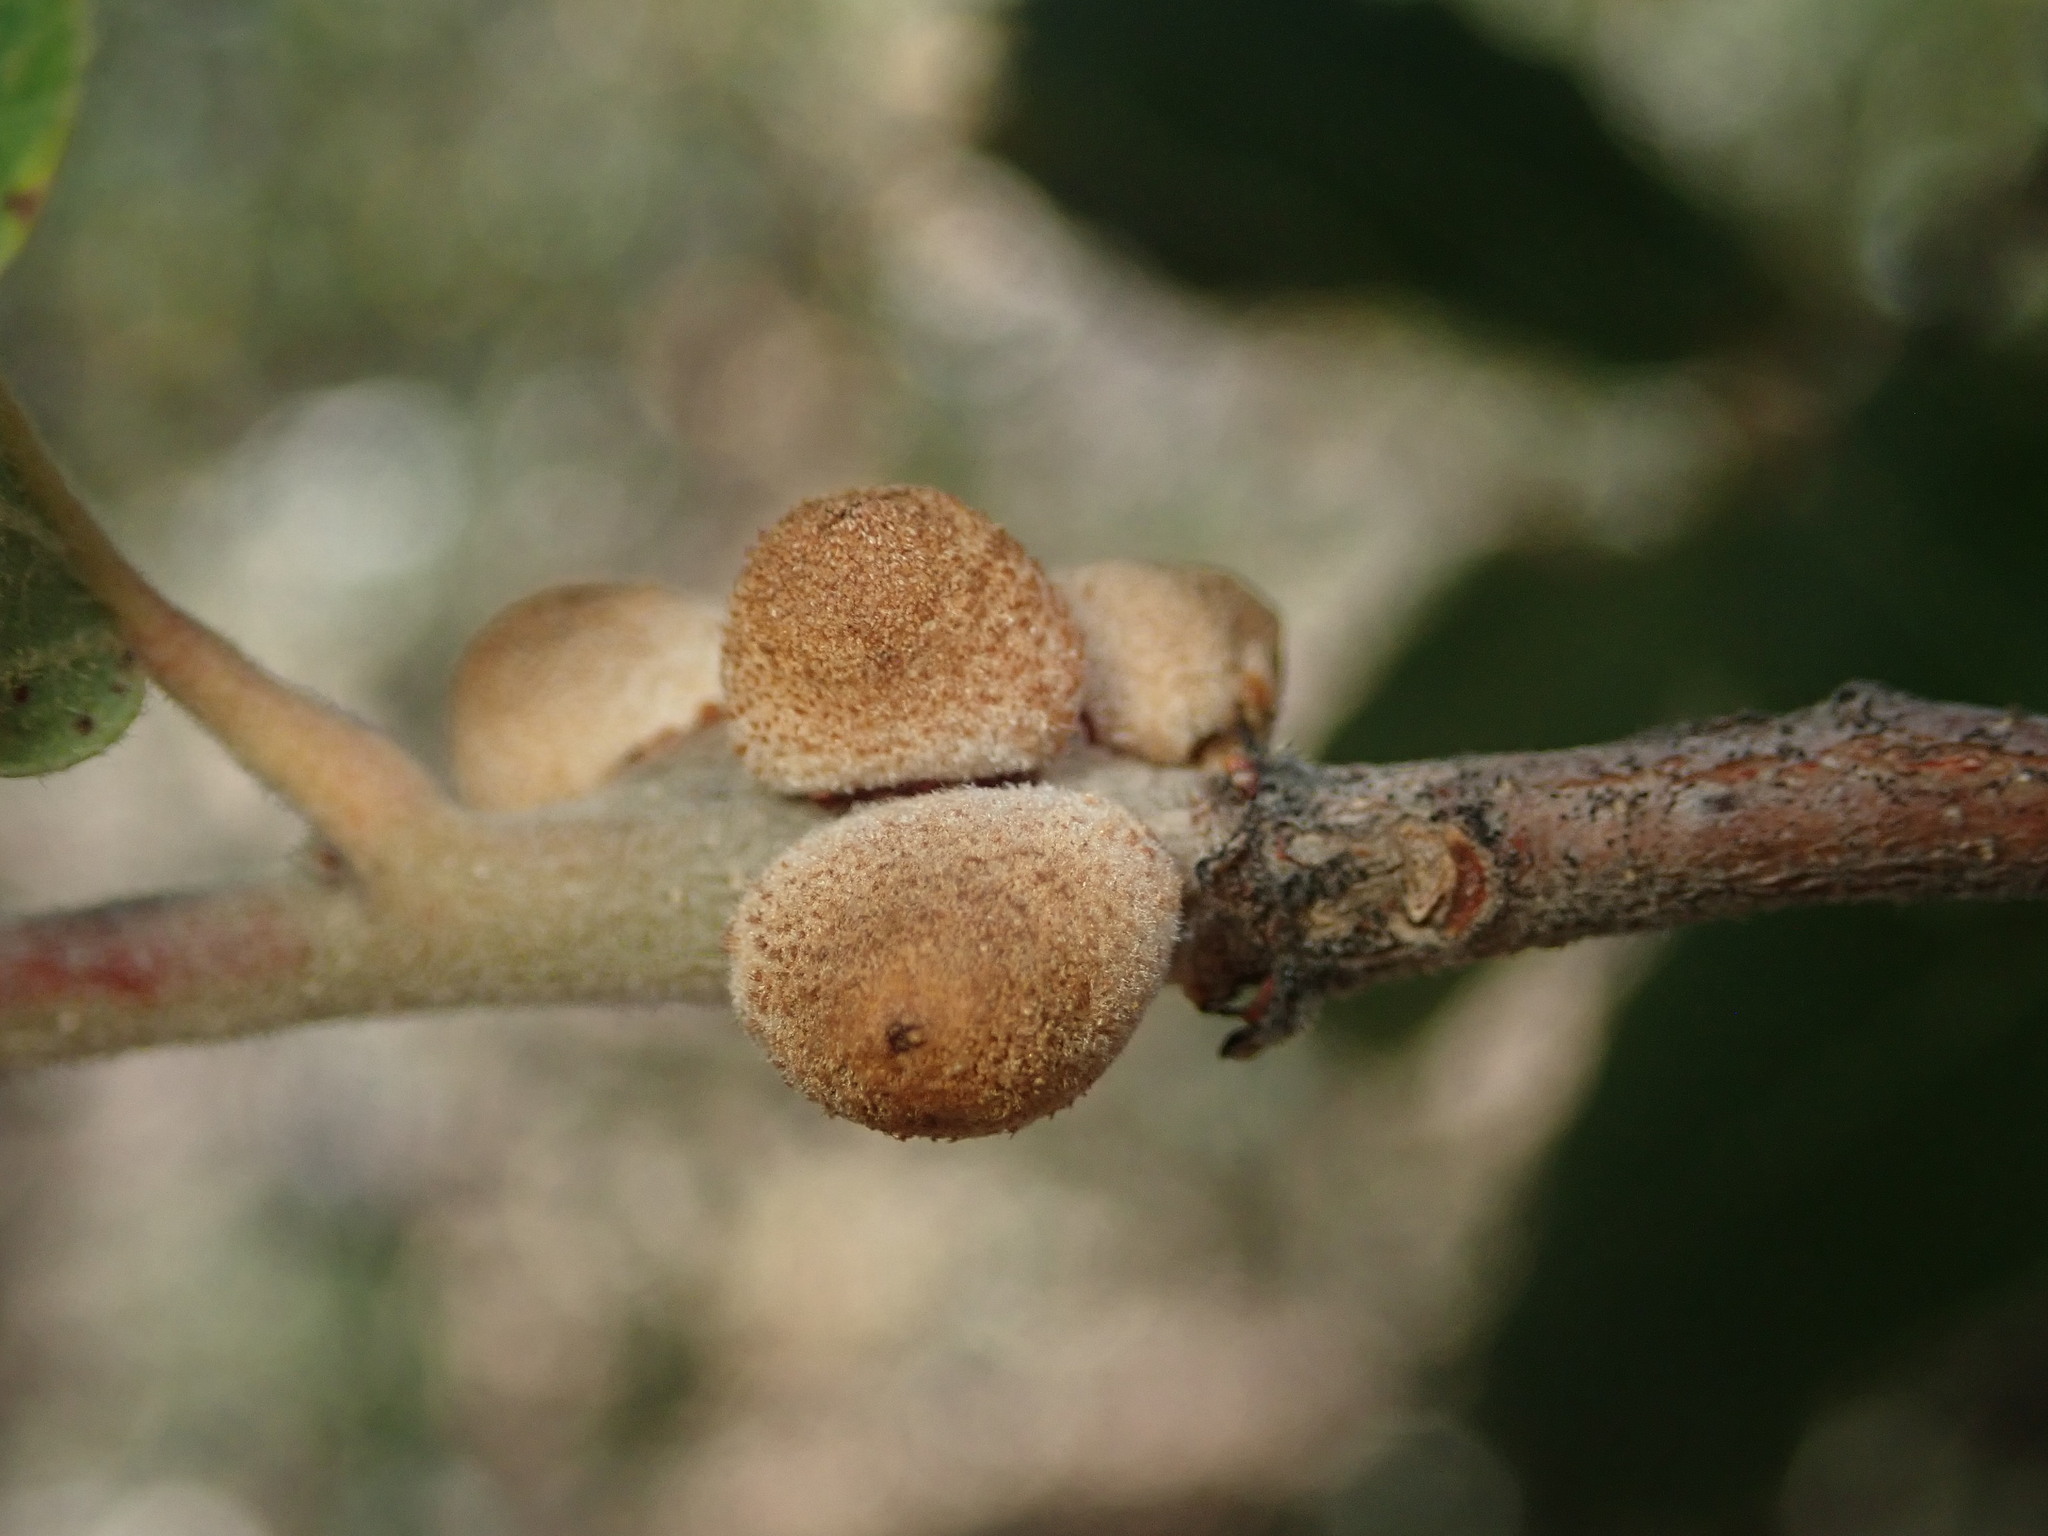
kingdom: Animalia
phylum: Arthropoda
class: Insecta
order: Hymenoptera
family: Cynipidae
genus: Disholcaspis
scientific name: Disholcaspis
